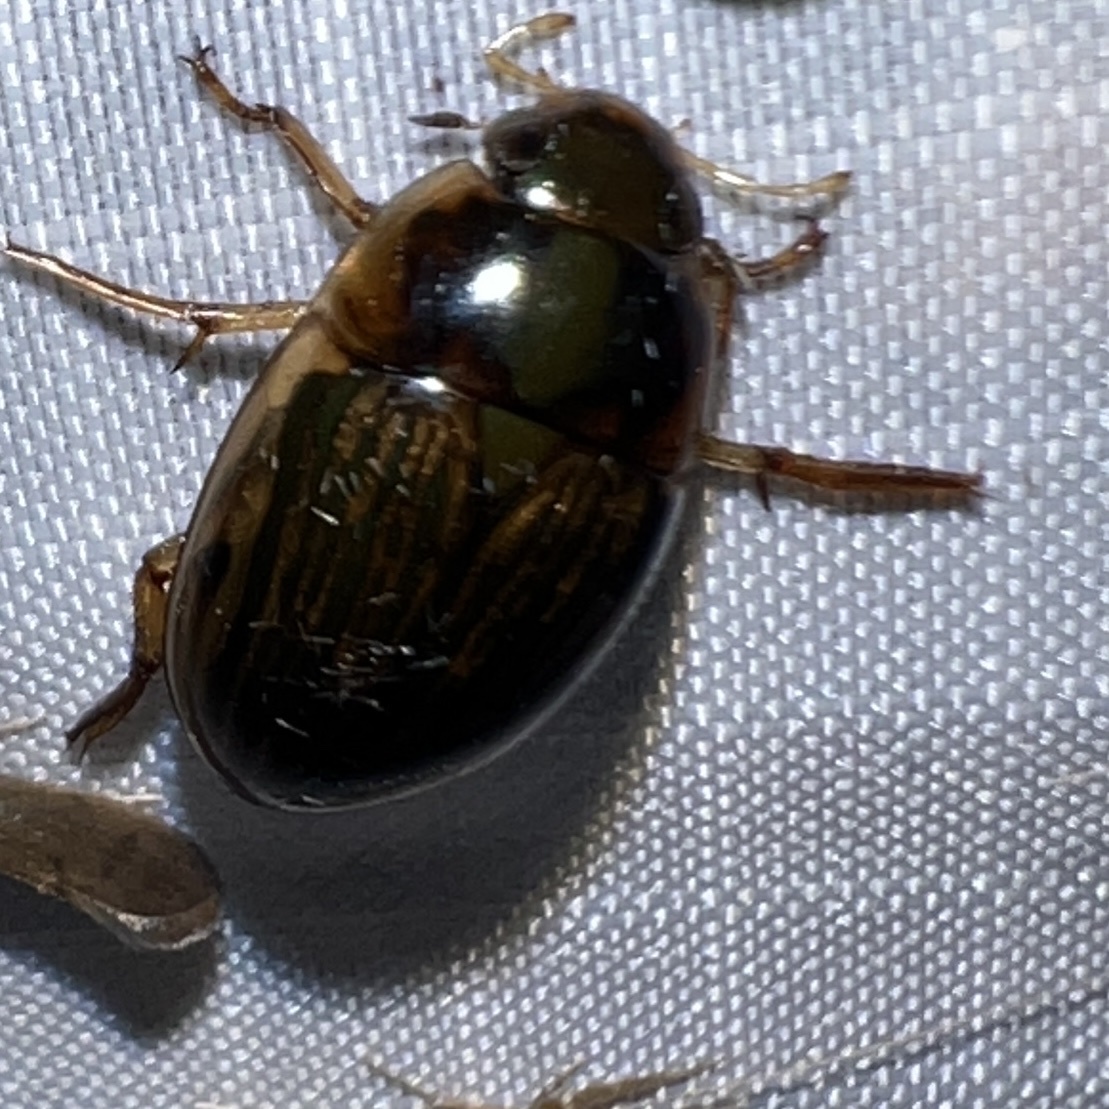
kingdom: Animalia
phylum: Arthropoda
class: Insecta
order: Coleoptera
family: Hydrophilidae
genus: Tropisternus
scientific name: Tropisternus collaris
